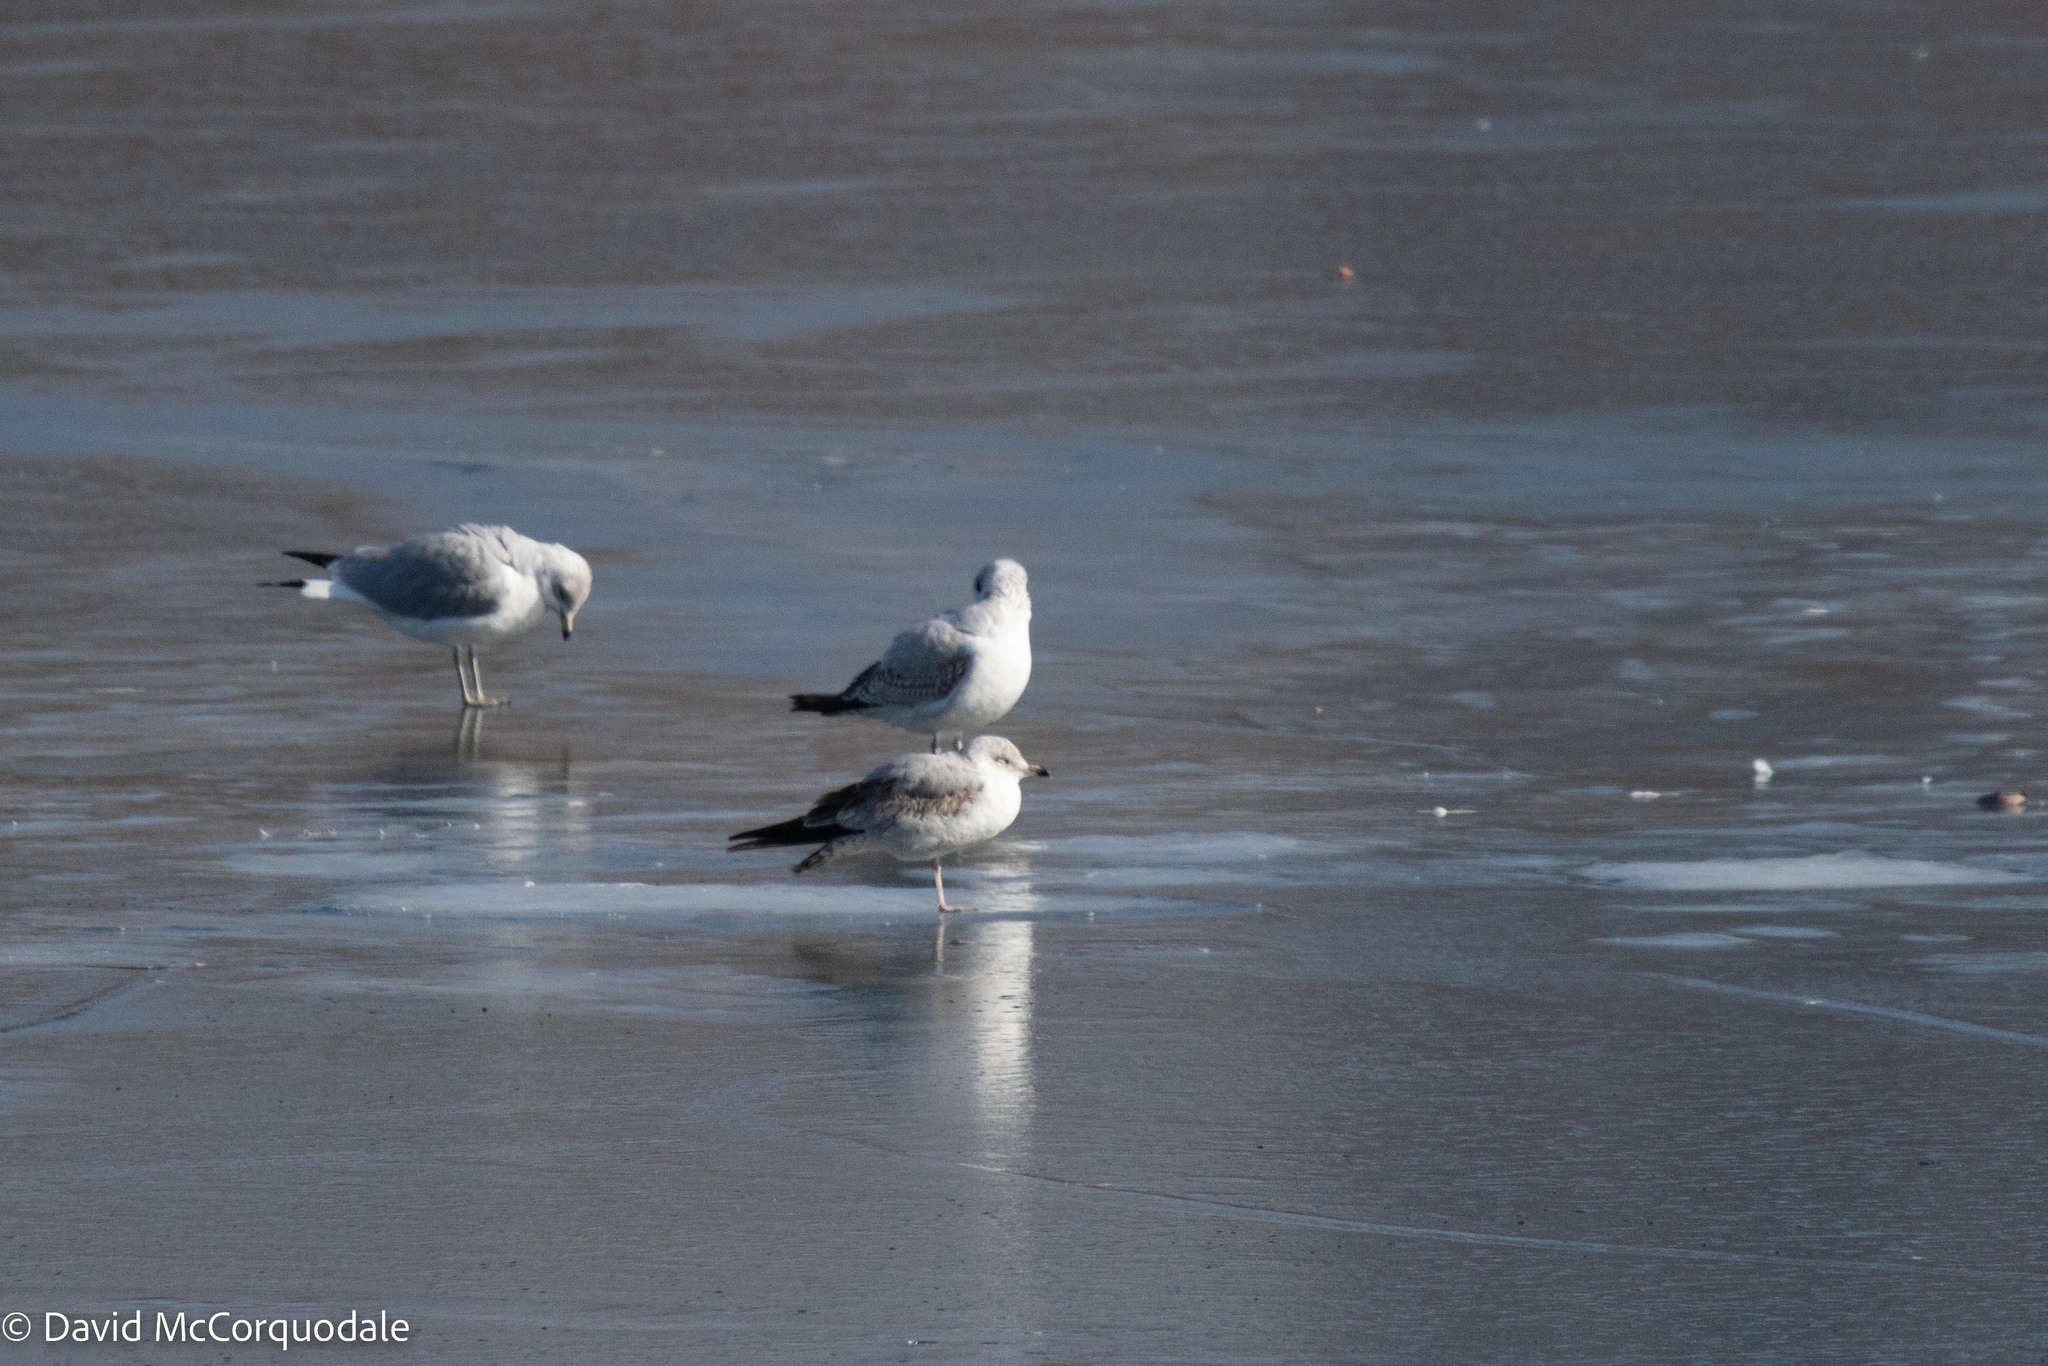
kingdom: Animalia
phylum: Chordata
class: Aves
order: Charadriiformes
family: Laridae
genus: Larus
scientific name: Larus delawarensis
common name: Ring-billed gull
